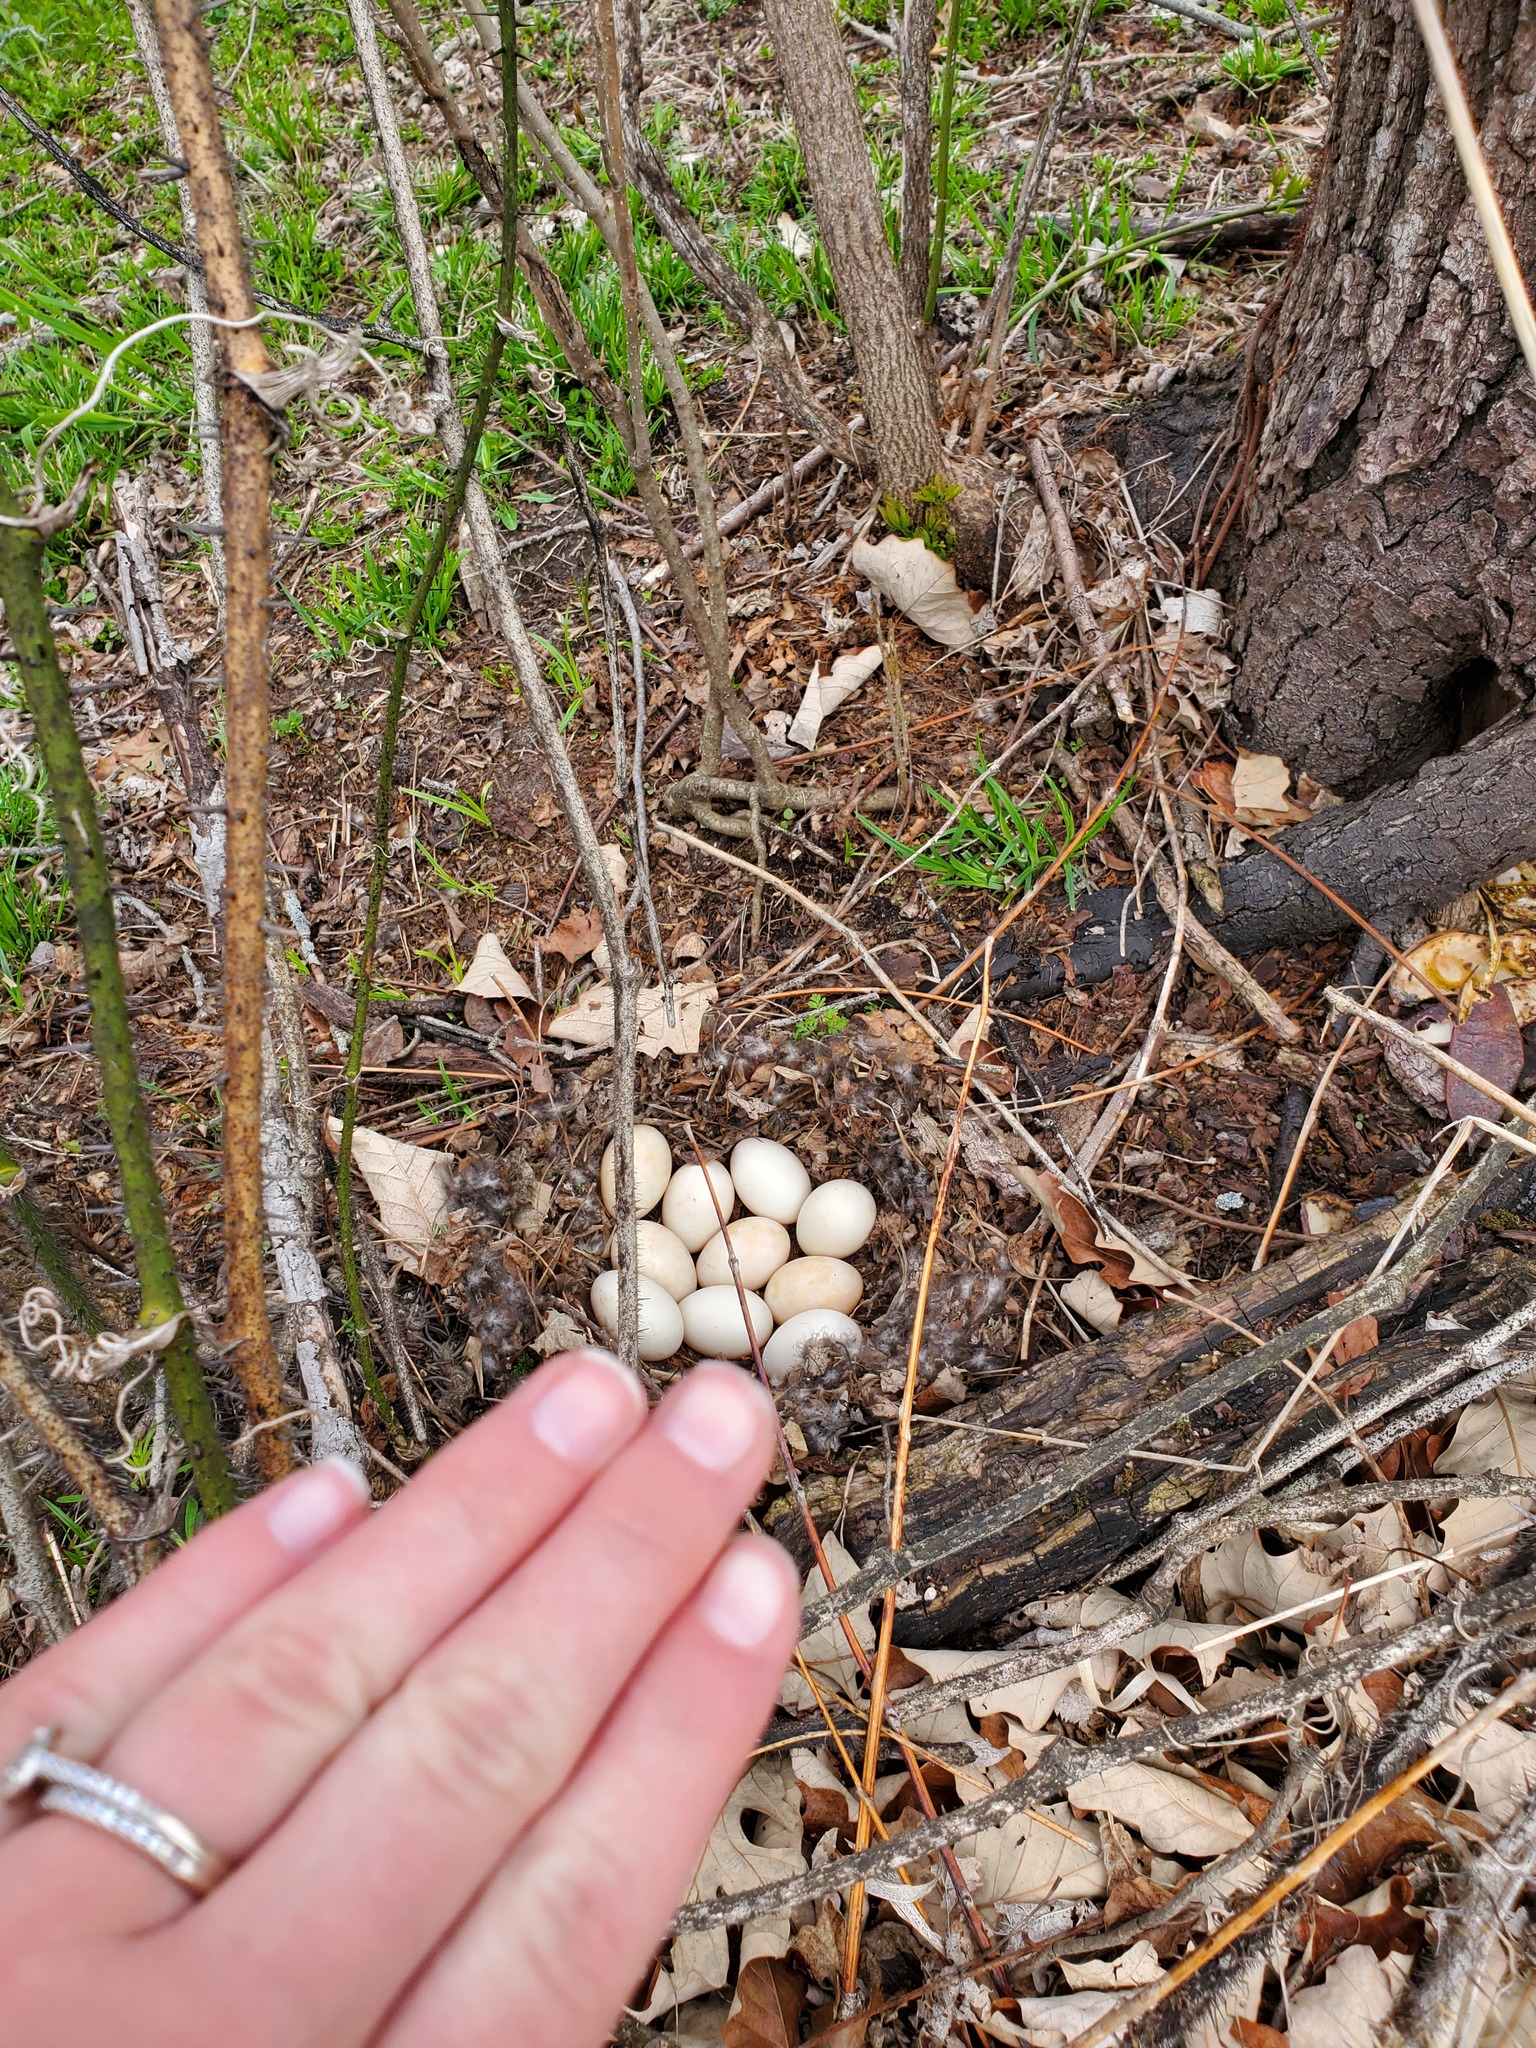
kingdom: Animalia
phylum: Chordata
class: Aves
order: Anseriformes
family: Anatidae
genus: Branta
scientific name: Branta canadensis
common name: Canada goose
